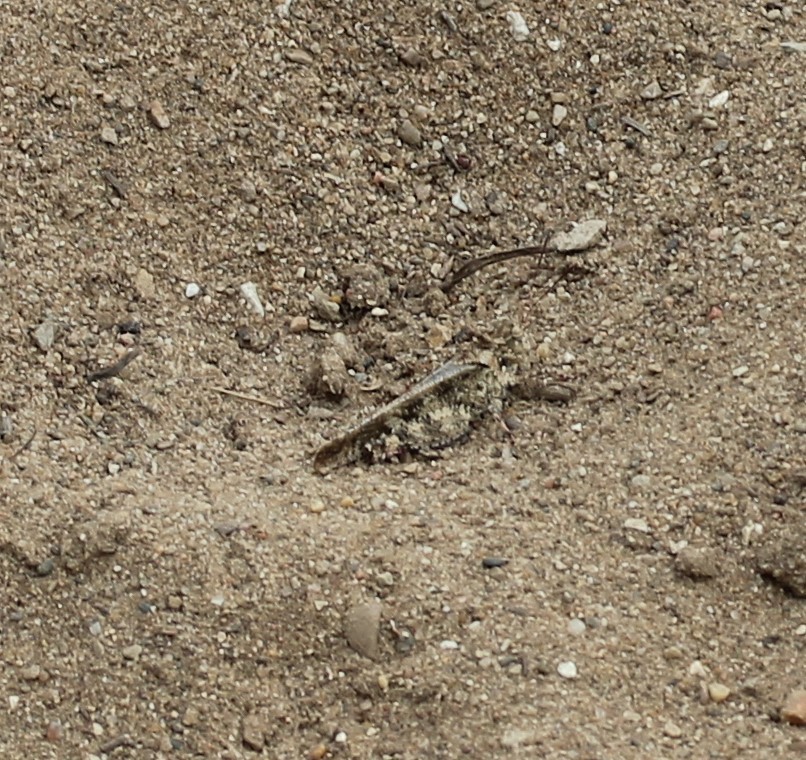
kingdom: Animalia
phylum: Arthropoda
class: Insecta
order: Orthoptera
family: Acrididae
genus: Spharagemon
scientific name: Spharagemon collare
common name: Mottled sand grasshopper
